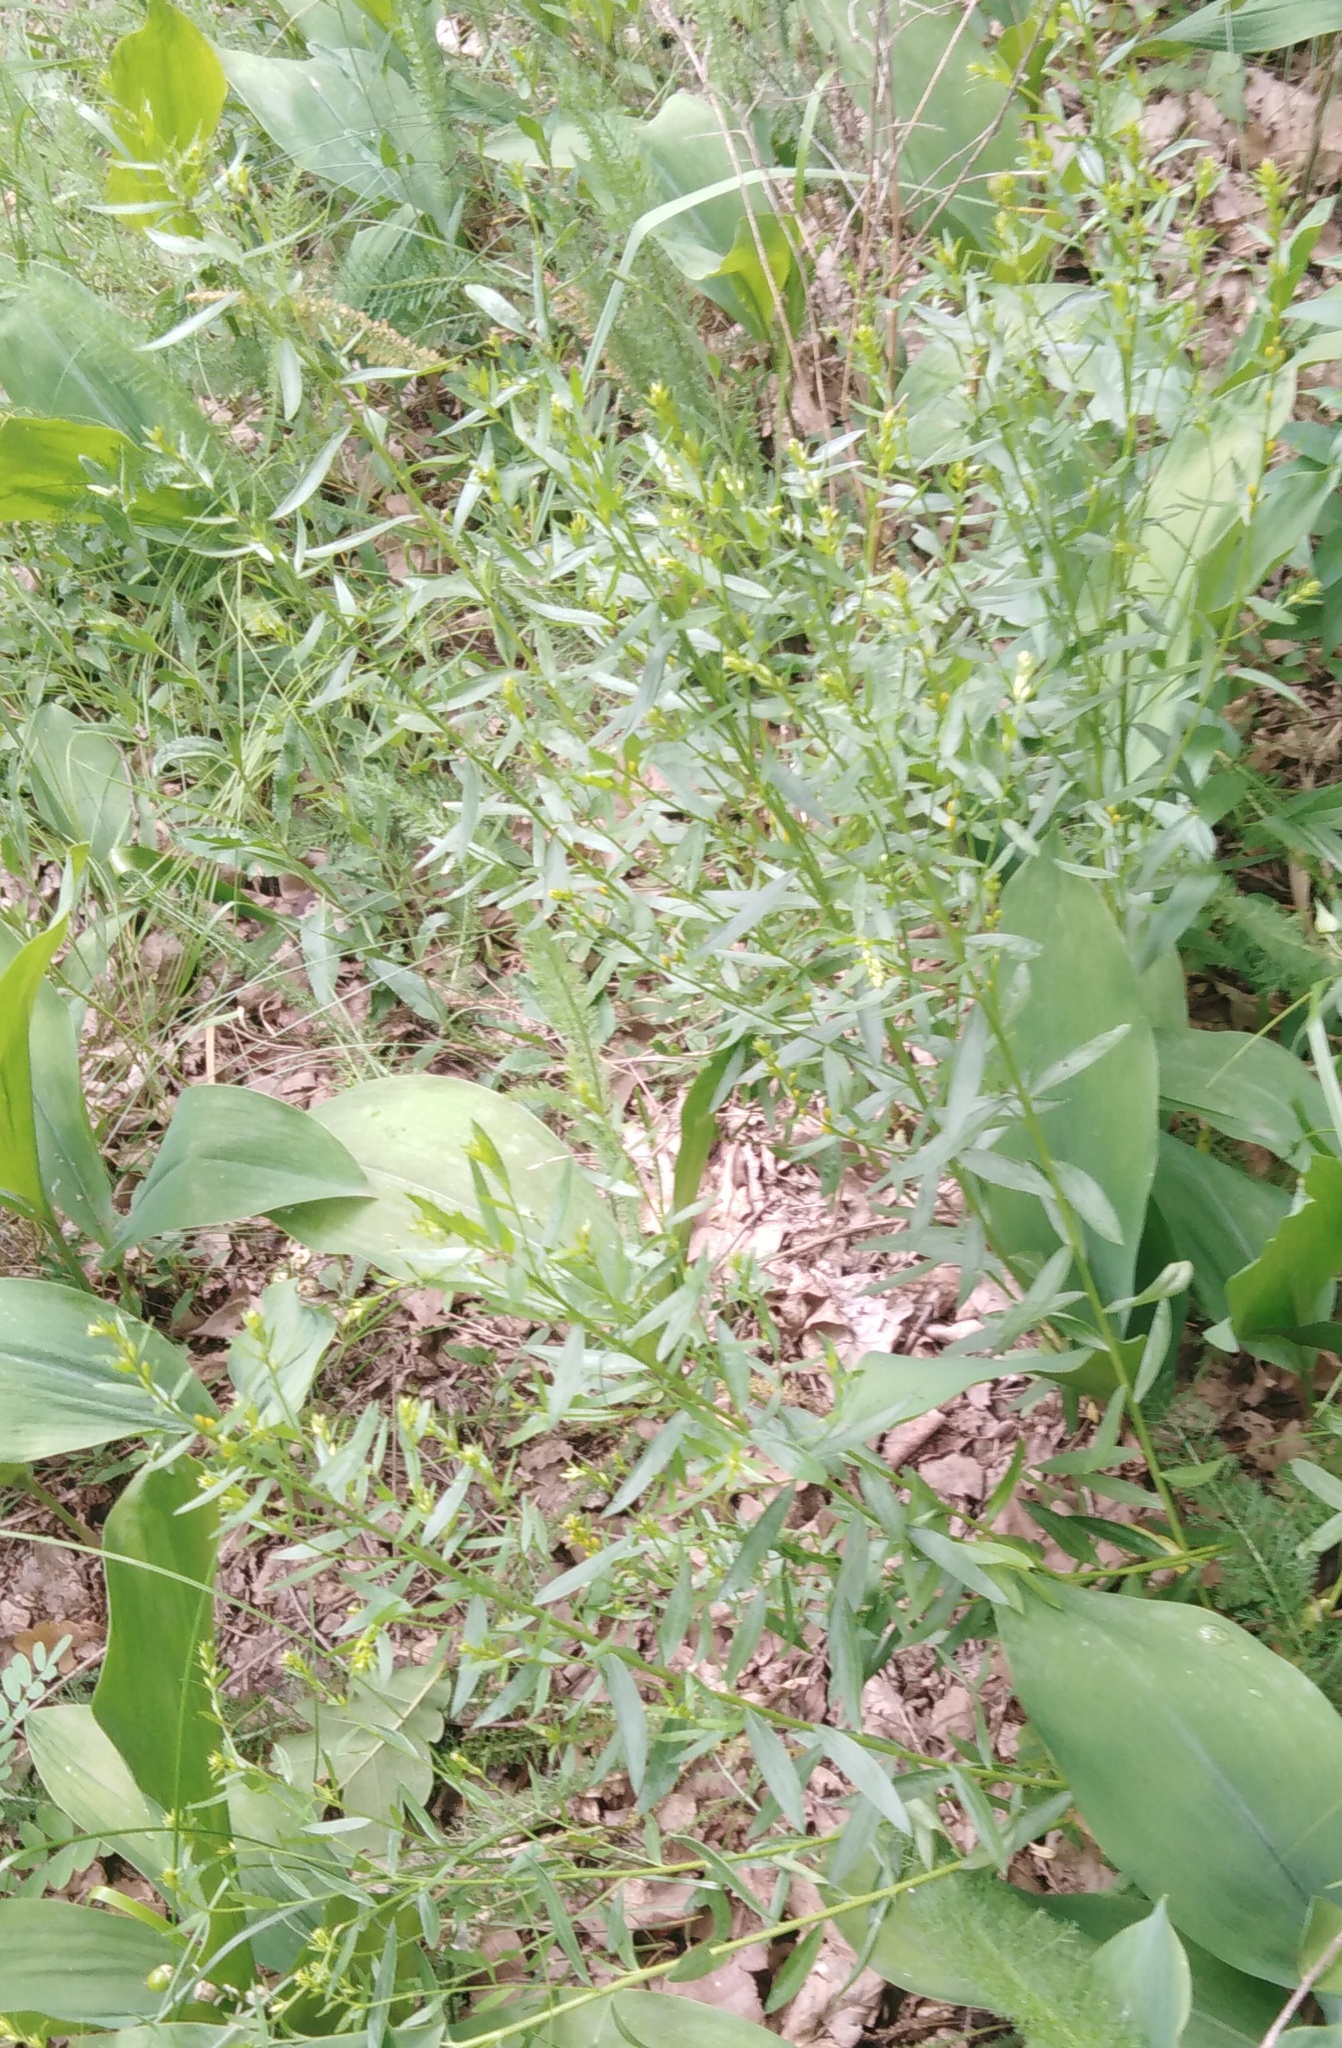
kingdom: Plantae
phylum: Tracheophyta
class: Magnoliopsida
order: Fabales
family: Fabaceae
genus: Genista
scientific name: Genista tinctoria
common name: Dyer's greenweed
